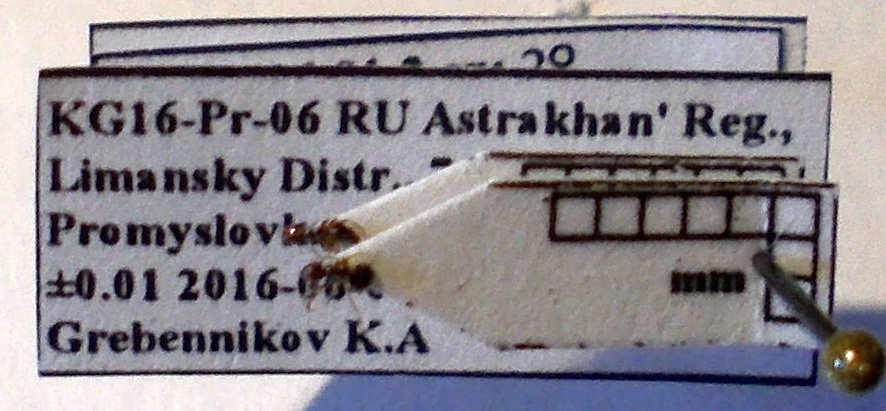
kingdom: Animalia
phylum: Arthropoda
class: Insecta
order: Hymenoptera
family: Formicidae
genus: Plagiolepis
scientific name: Plagiolepis pallescens
